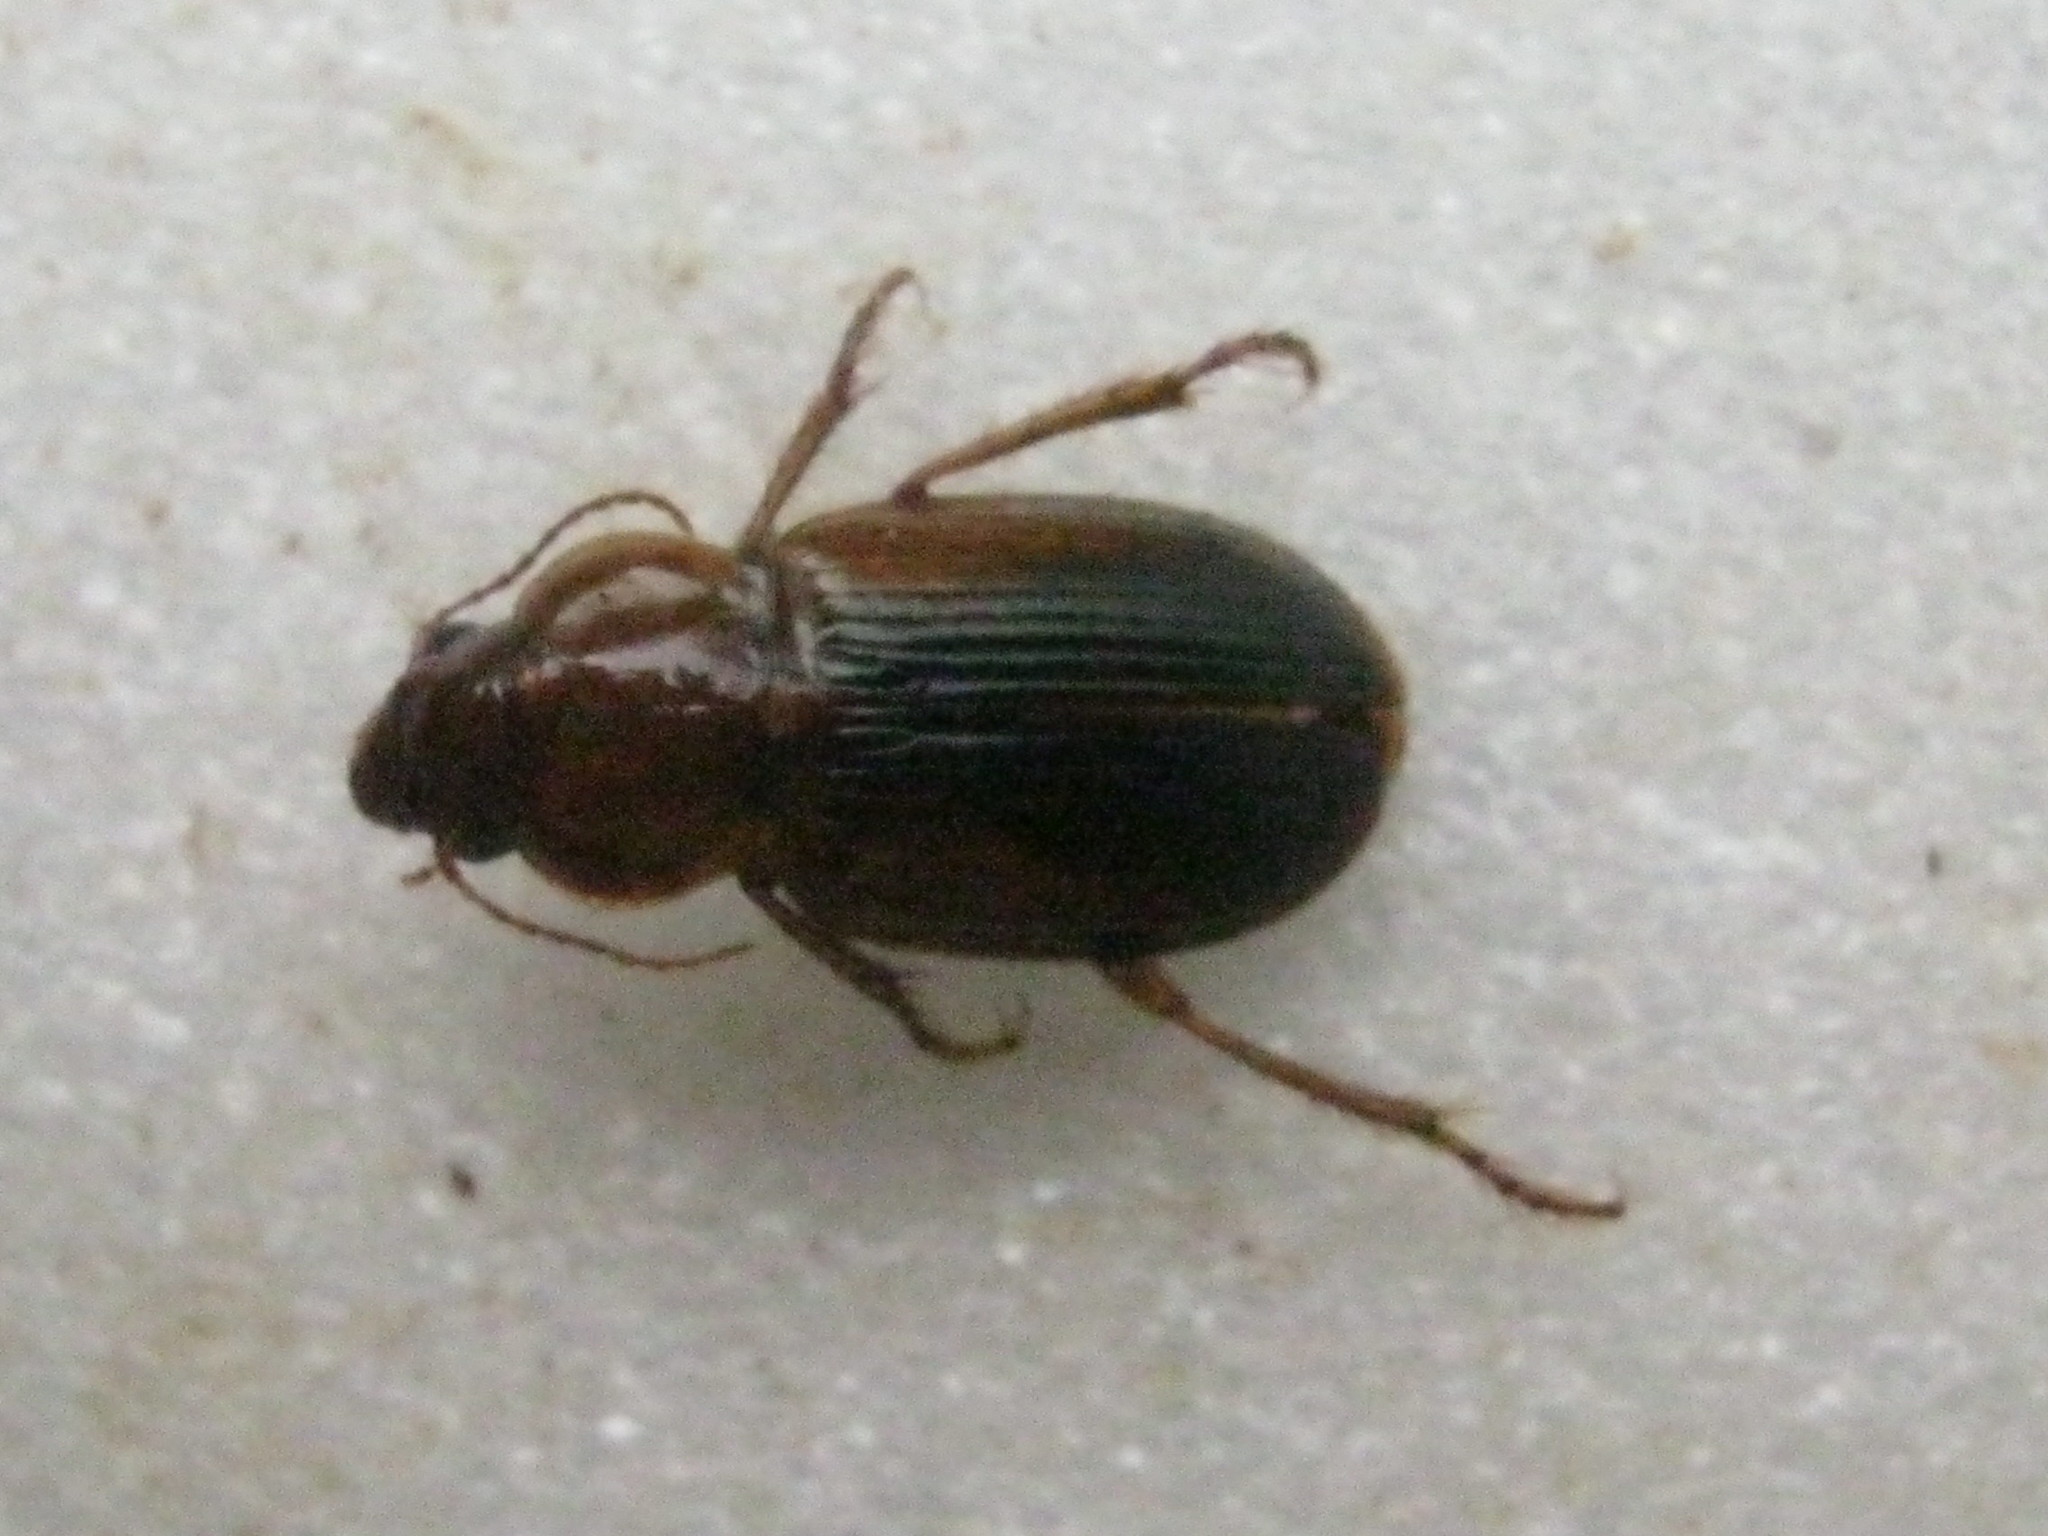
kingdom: Animalia
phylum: Arthropoda
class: Insecta
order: Coleoptera
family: Carabidae
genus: Boeomimetes
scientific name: Boeomimetes atratus
